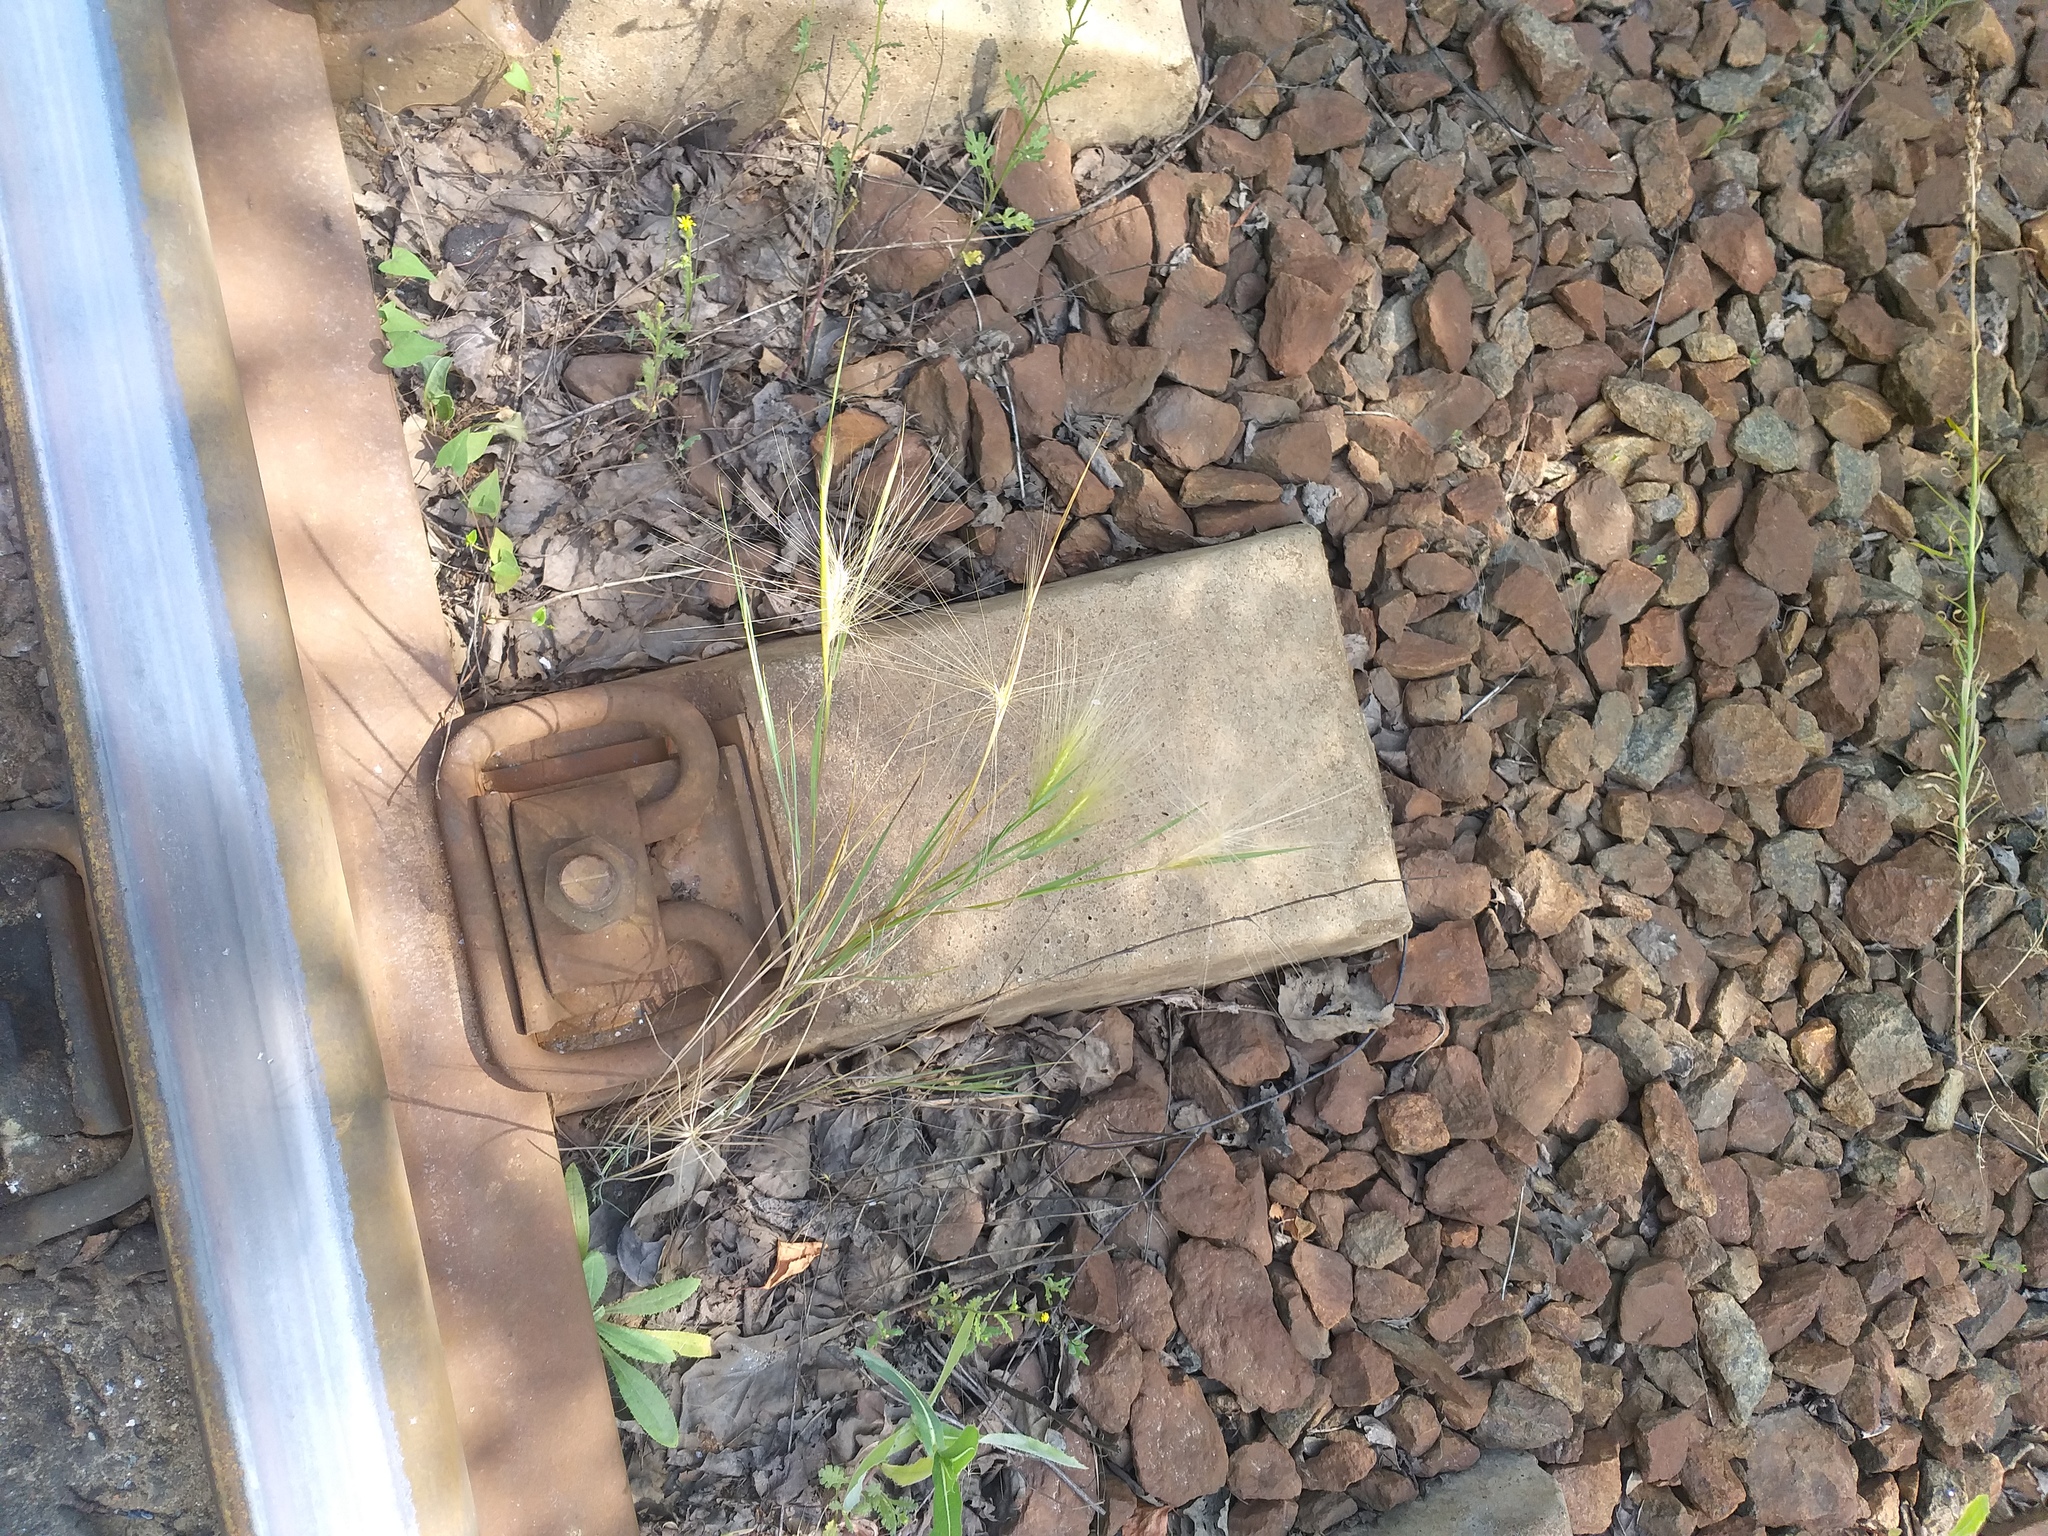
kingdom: Plantae
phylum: Tracheophyta
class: Liliopsida
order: Poales
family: Poaceae
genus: Hordeum
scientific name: Hordeum jubatum
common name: Foxtail barley
